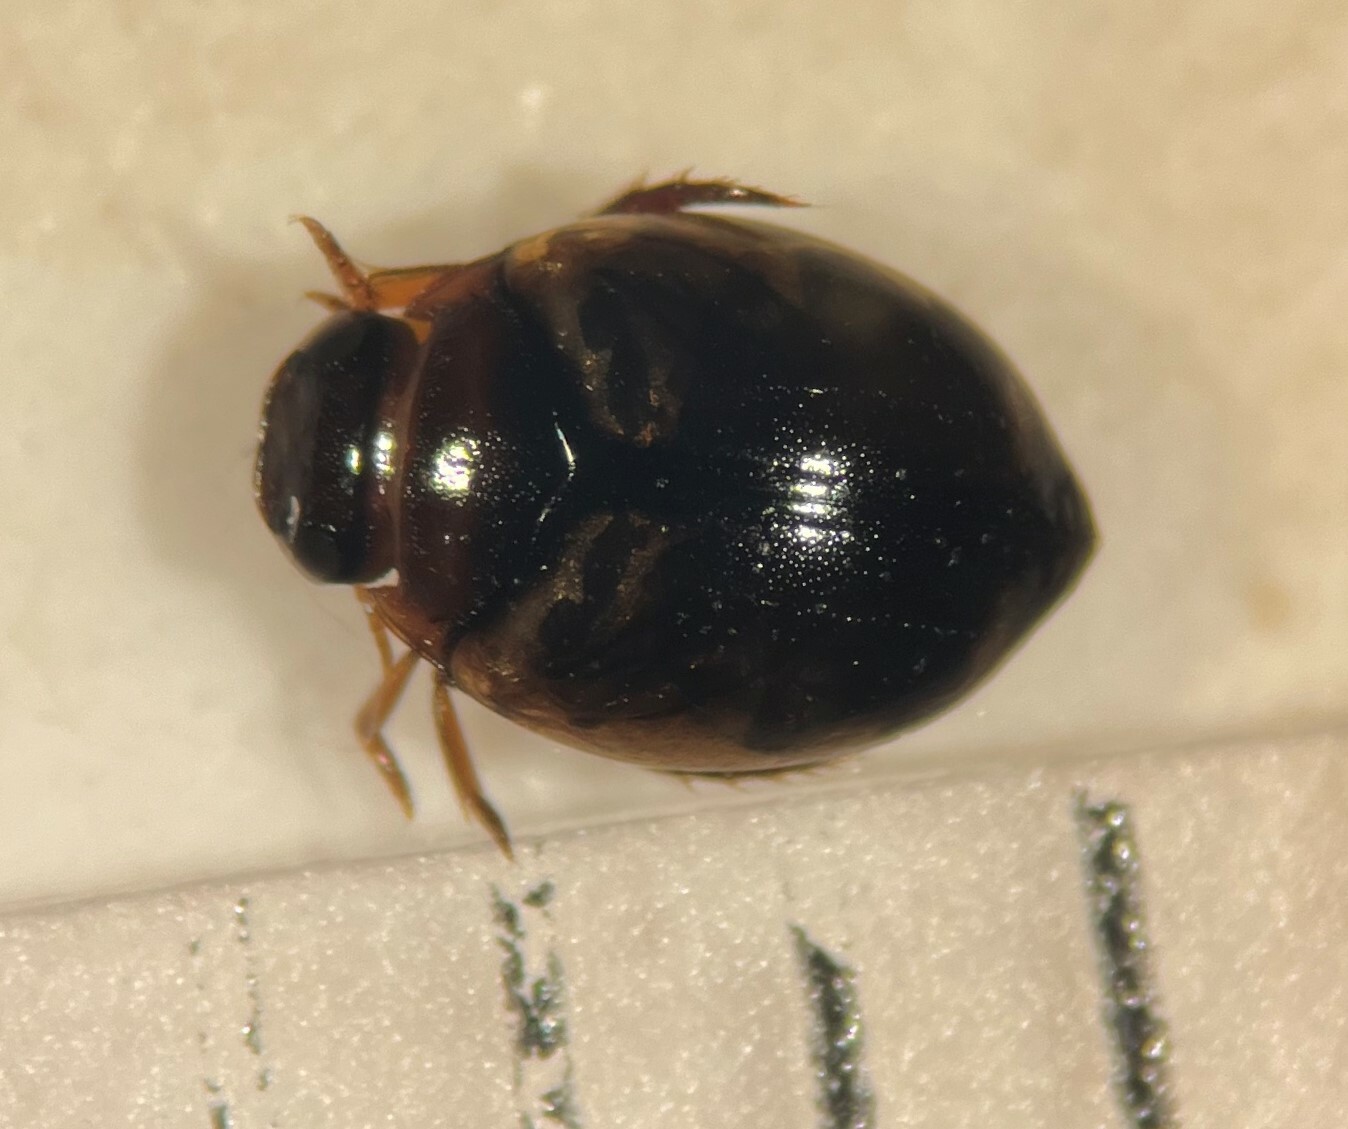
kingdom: Animalia
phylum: Arthropoda
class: Insecta
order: Coleoptera
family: Dytiscidae
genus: Desmopachria
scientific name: Desmopachria portmanni
